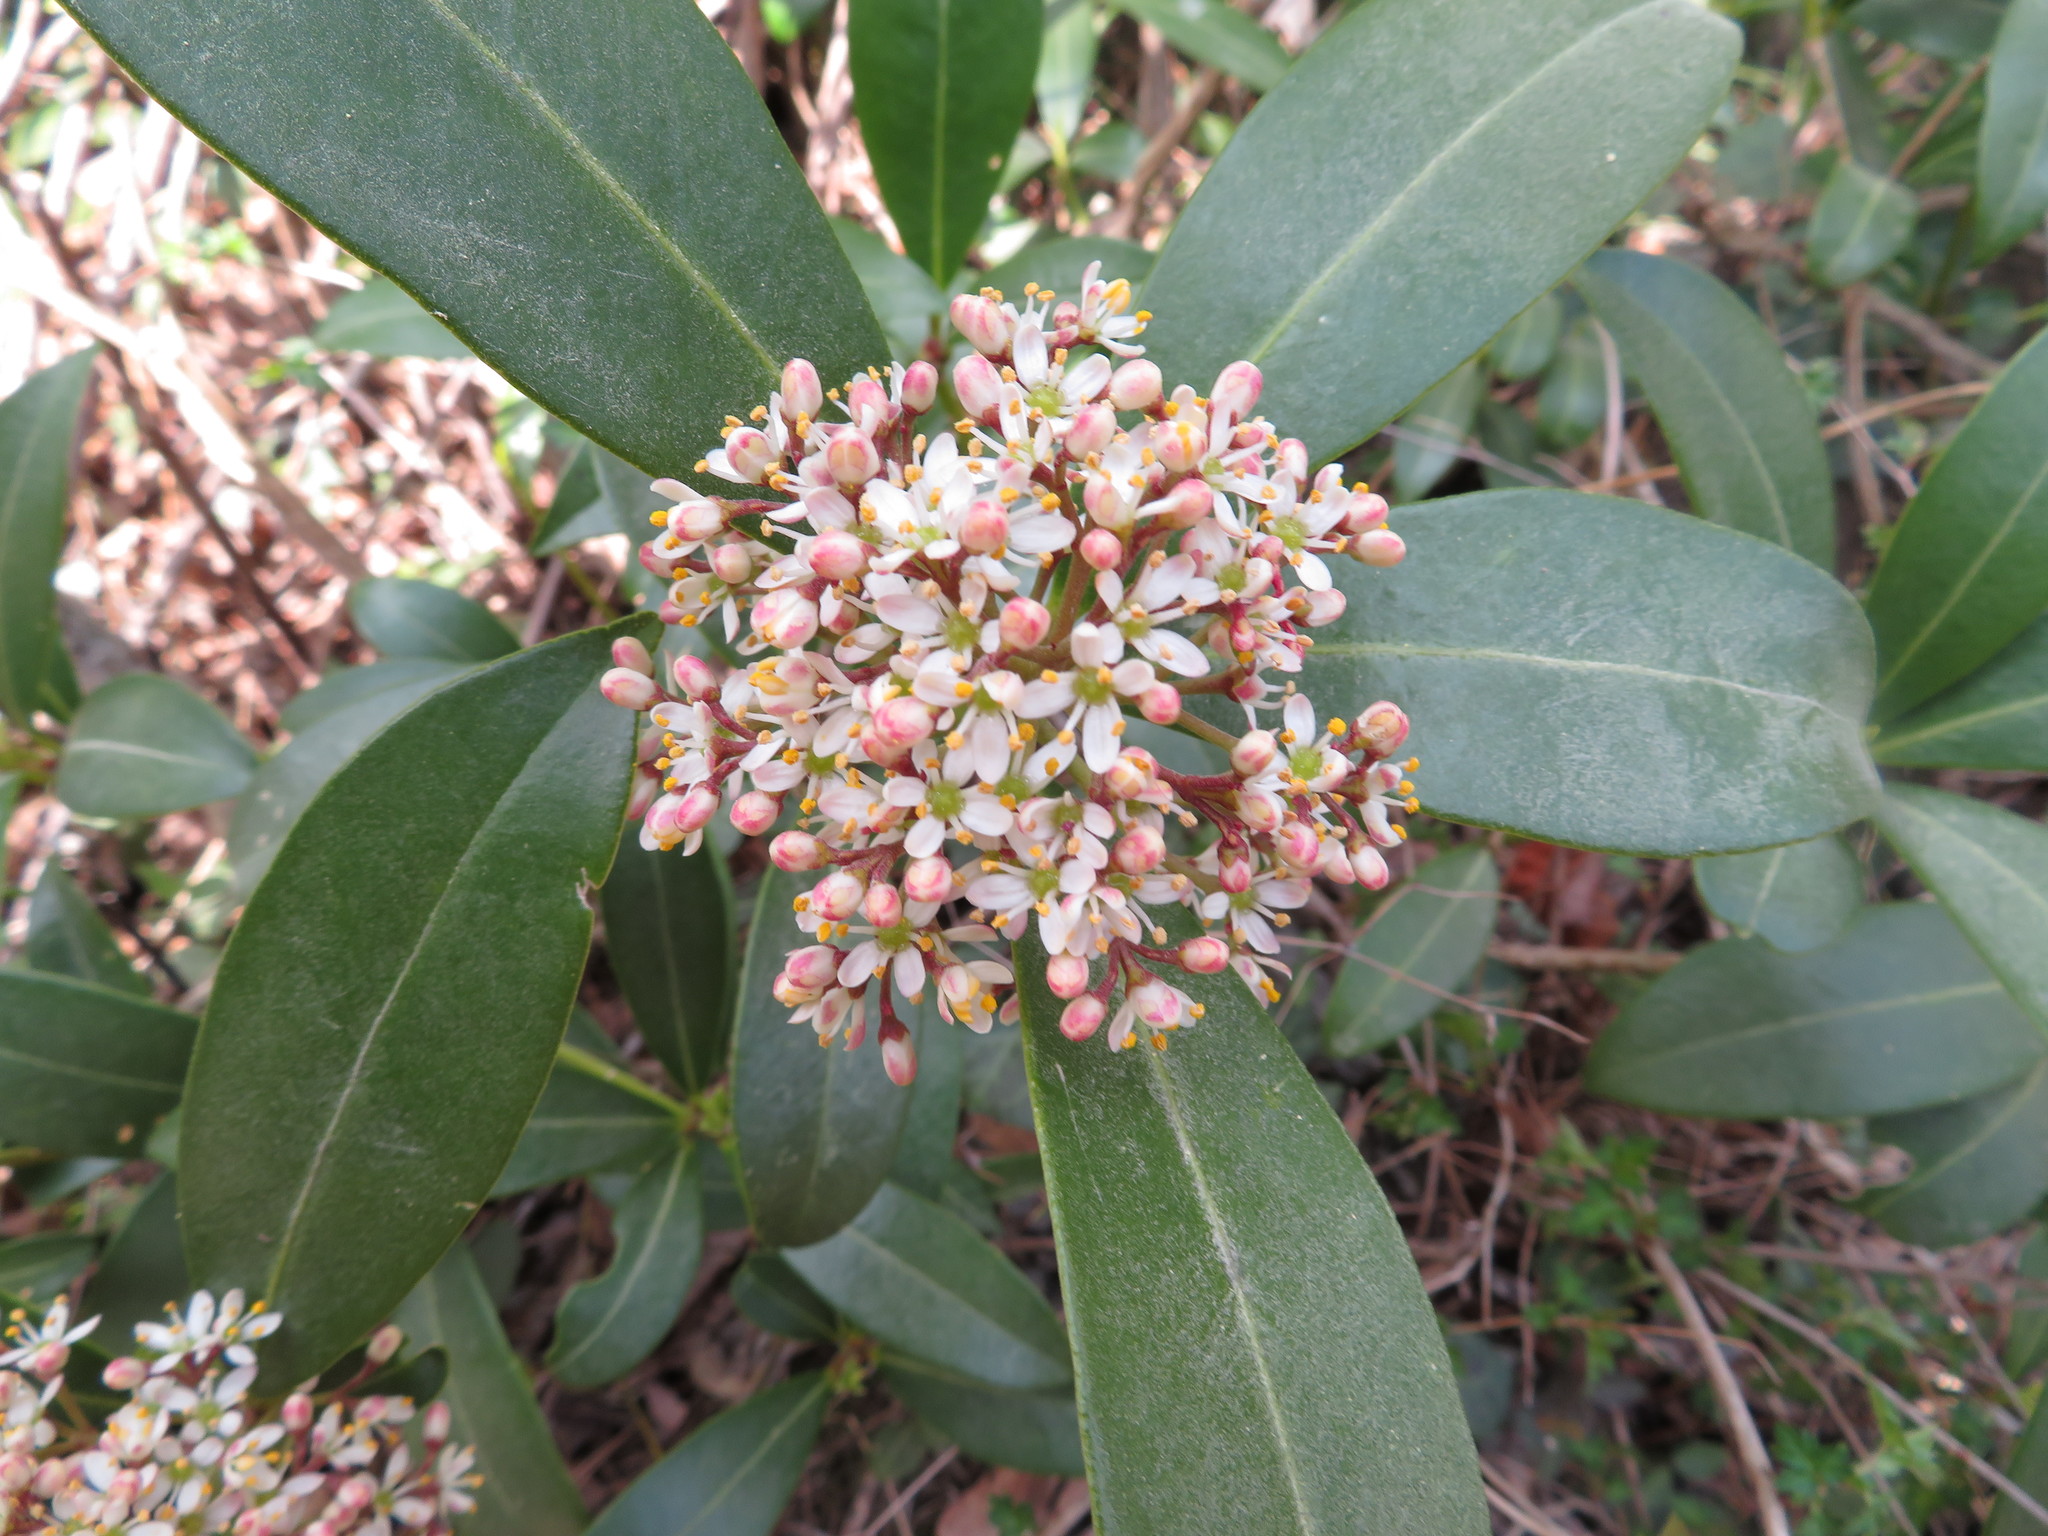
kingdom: Plantae
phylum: Tracheophyta
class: Magnoliopsida
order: Sapindales
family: Rutaceae
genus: Skimmia
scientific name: Skimmia japonica
